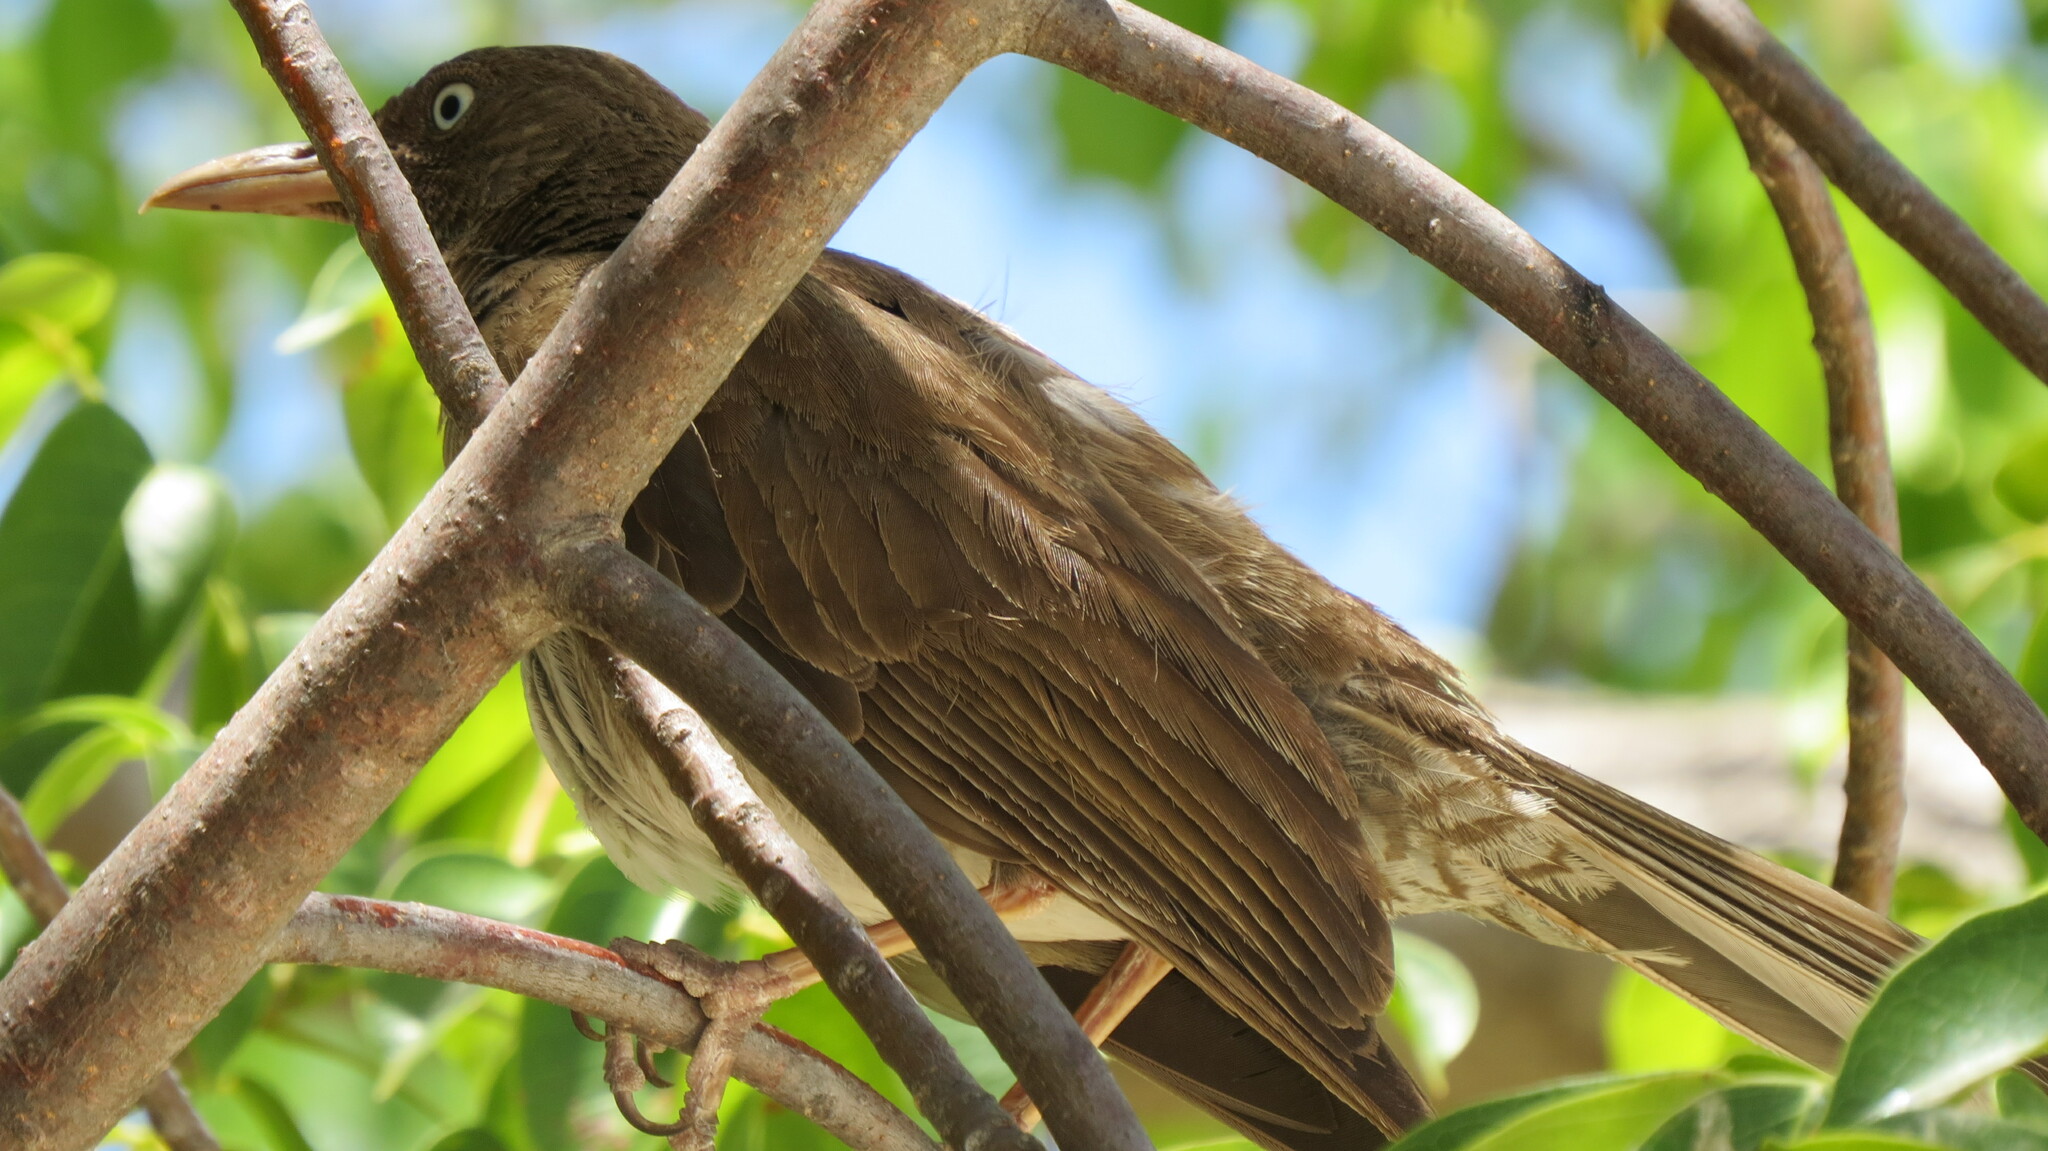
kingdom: Animalia
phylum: Chordata
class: Aves
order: Passeriformes
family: Mimidae
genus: Margarops
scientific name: Margarops fuscatus
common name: Pearly-eyed thrasher
